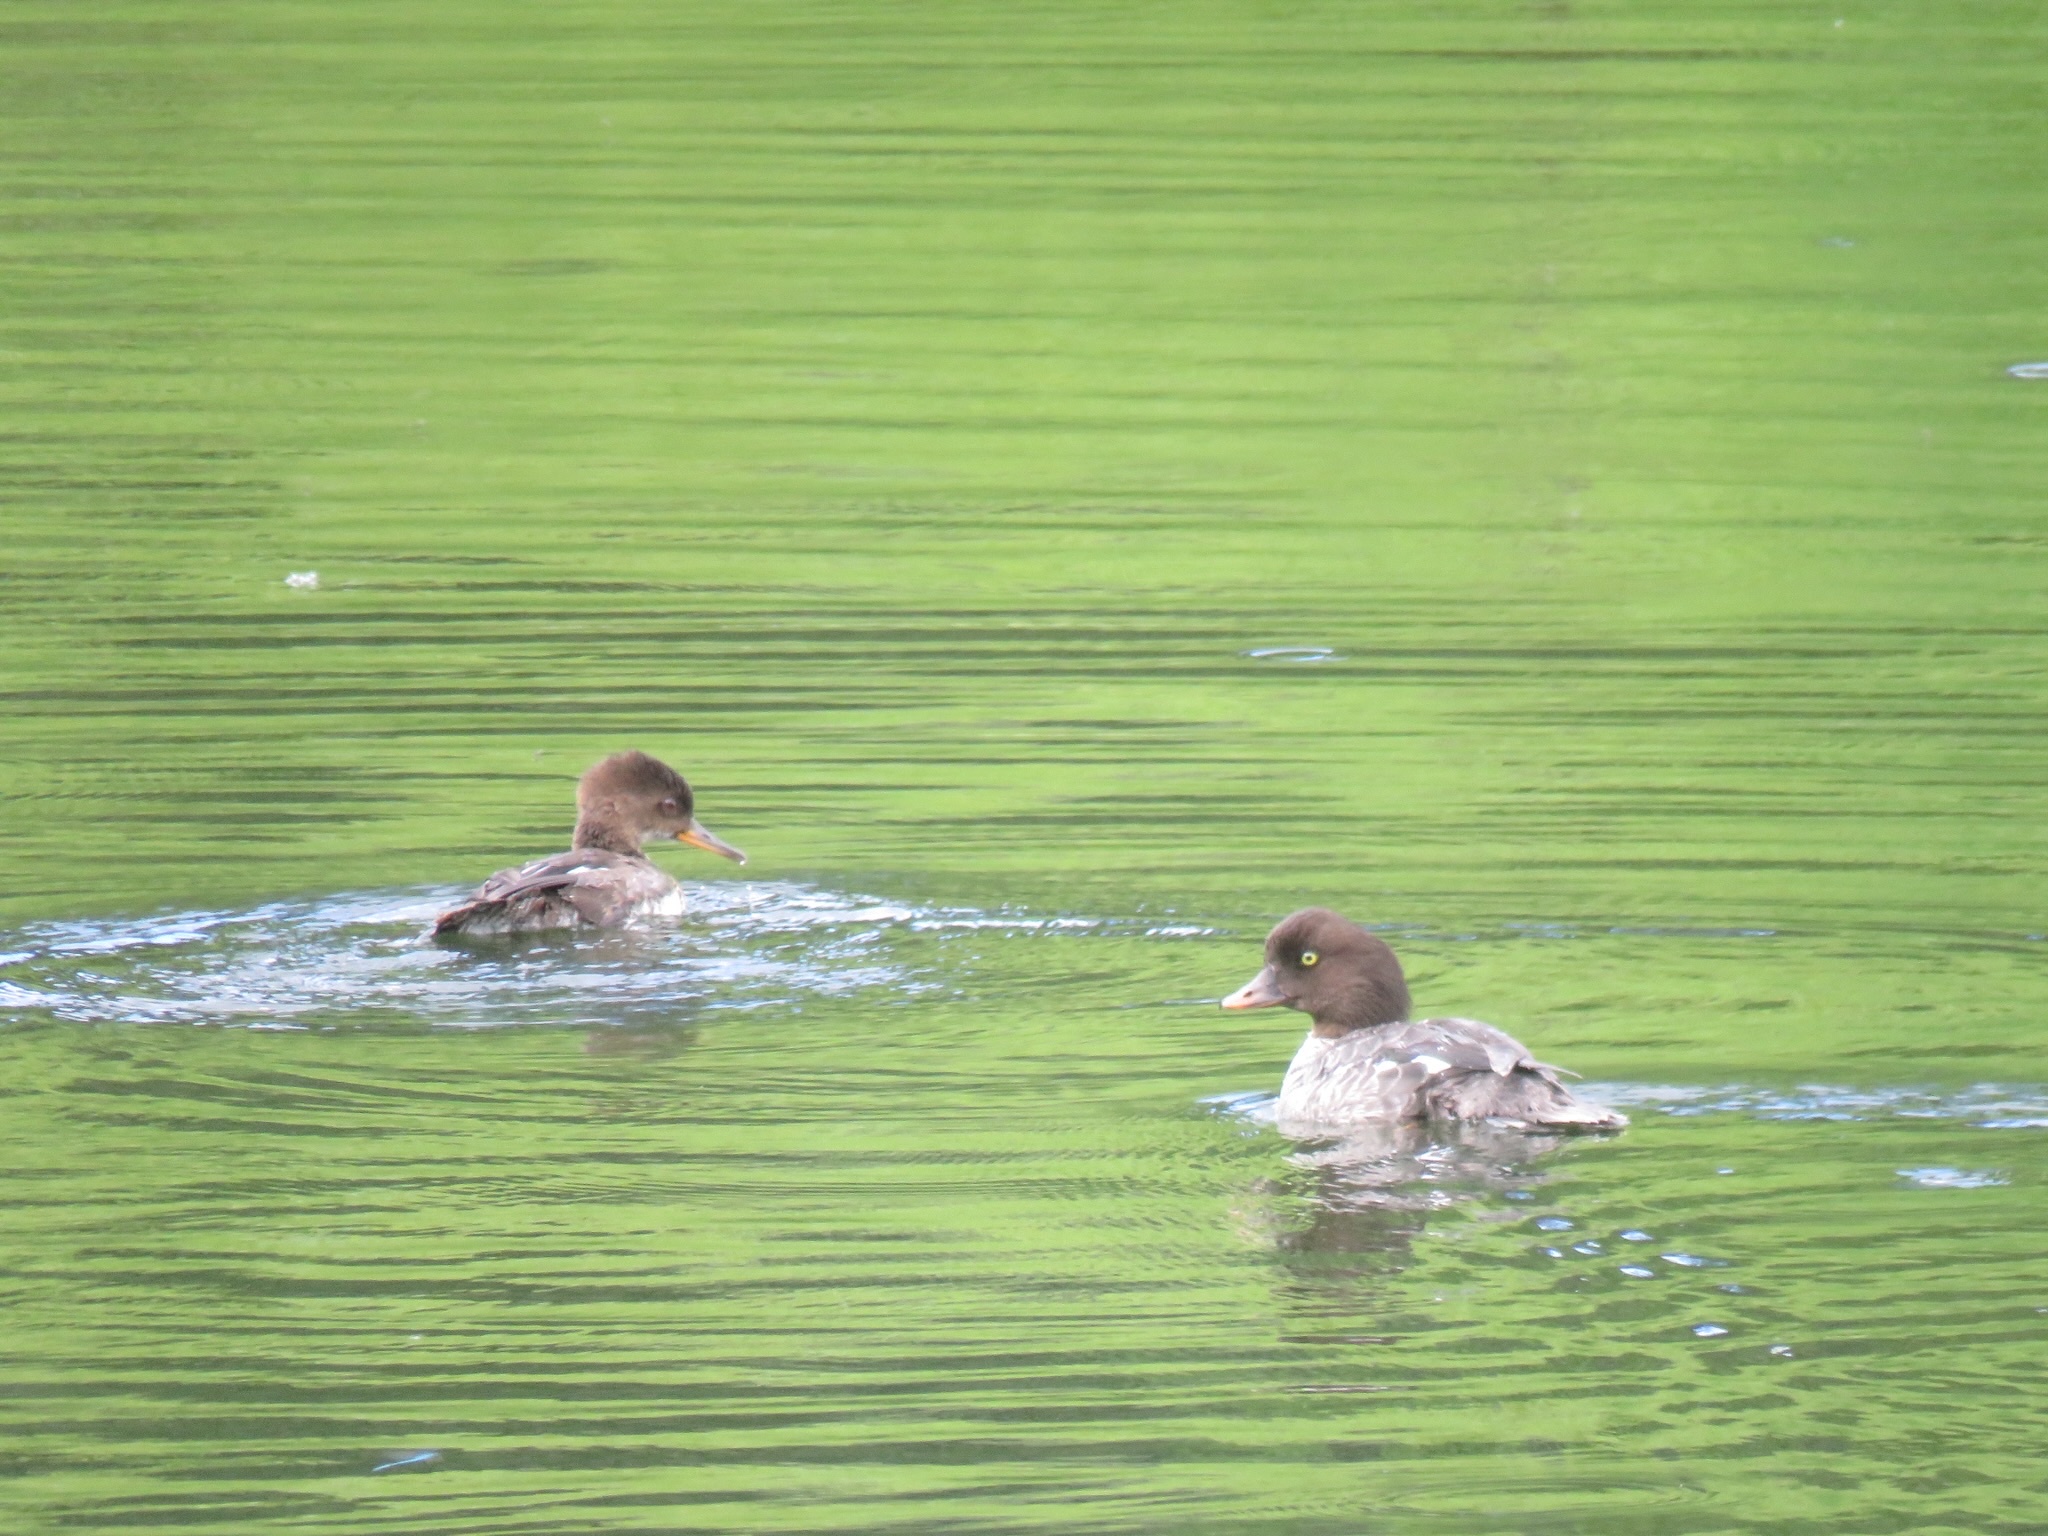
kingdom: Animalia
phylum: Chordata
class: Aves
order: Anseriformes
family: Anatidae
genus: Bucephala
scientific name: Bucephala islandica
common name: Barrow's goldeneye
